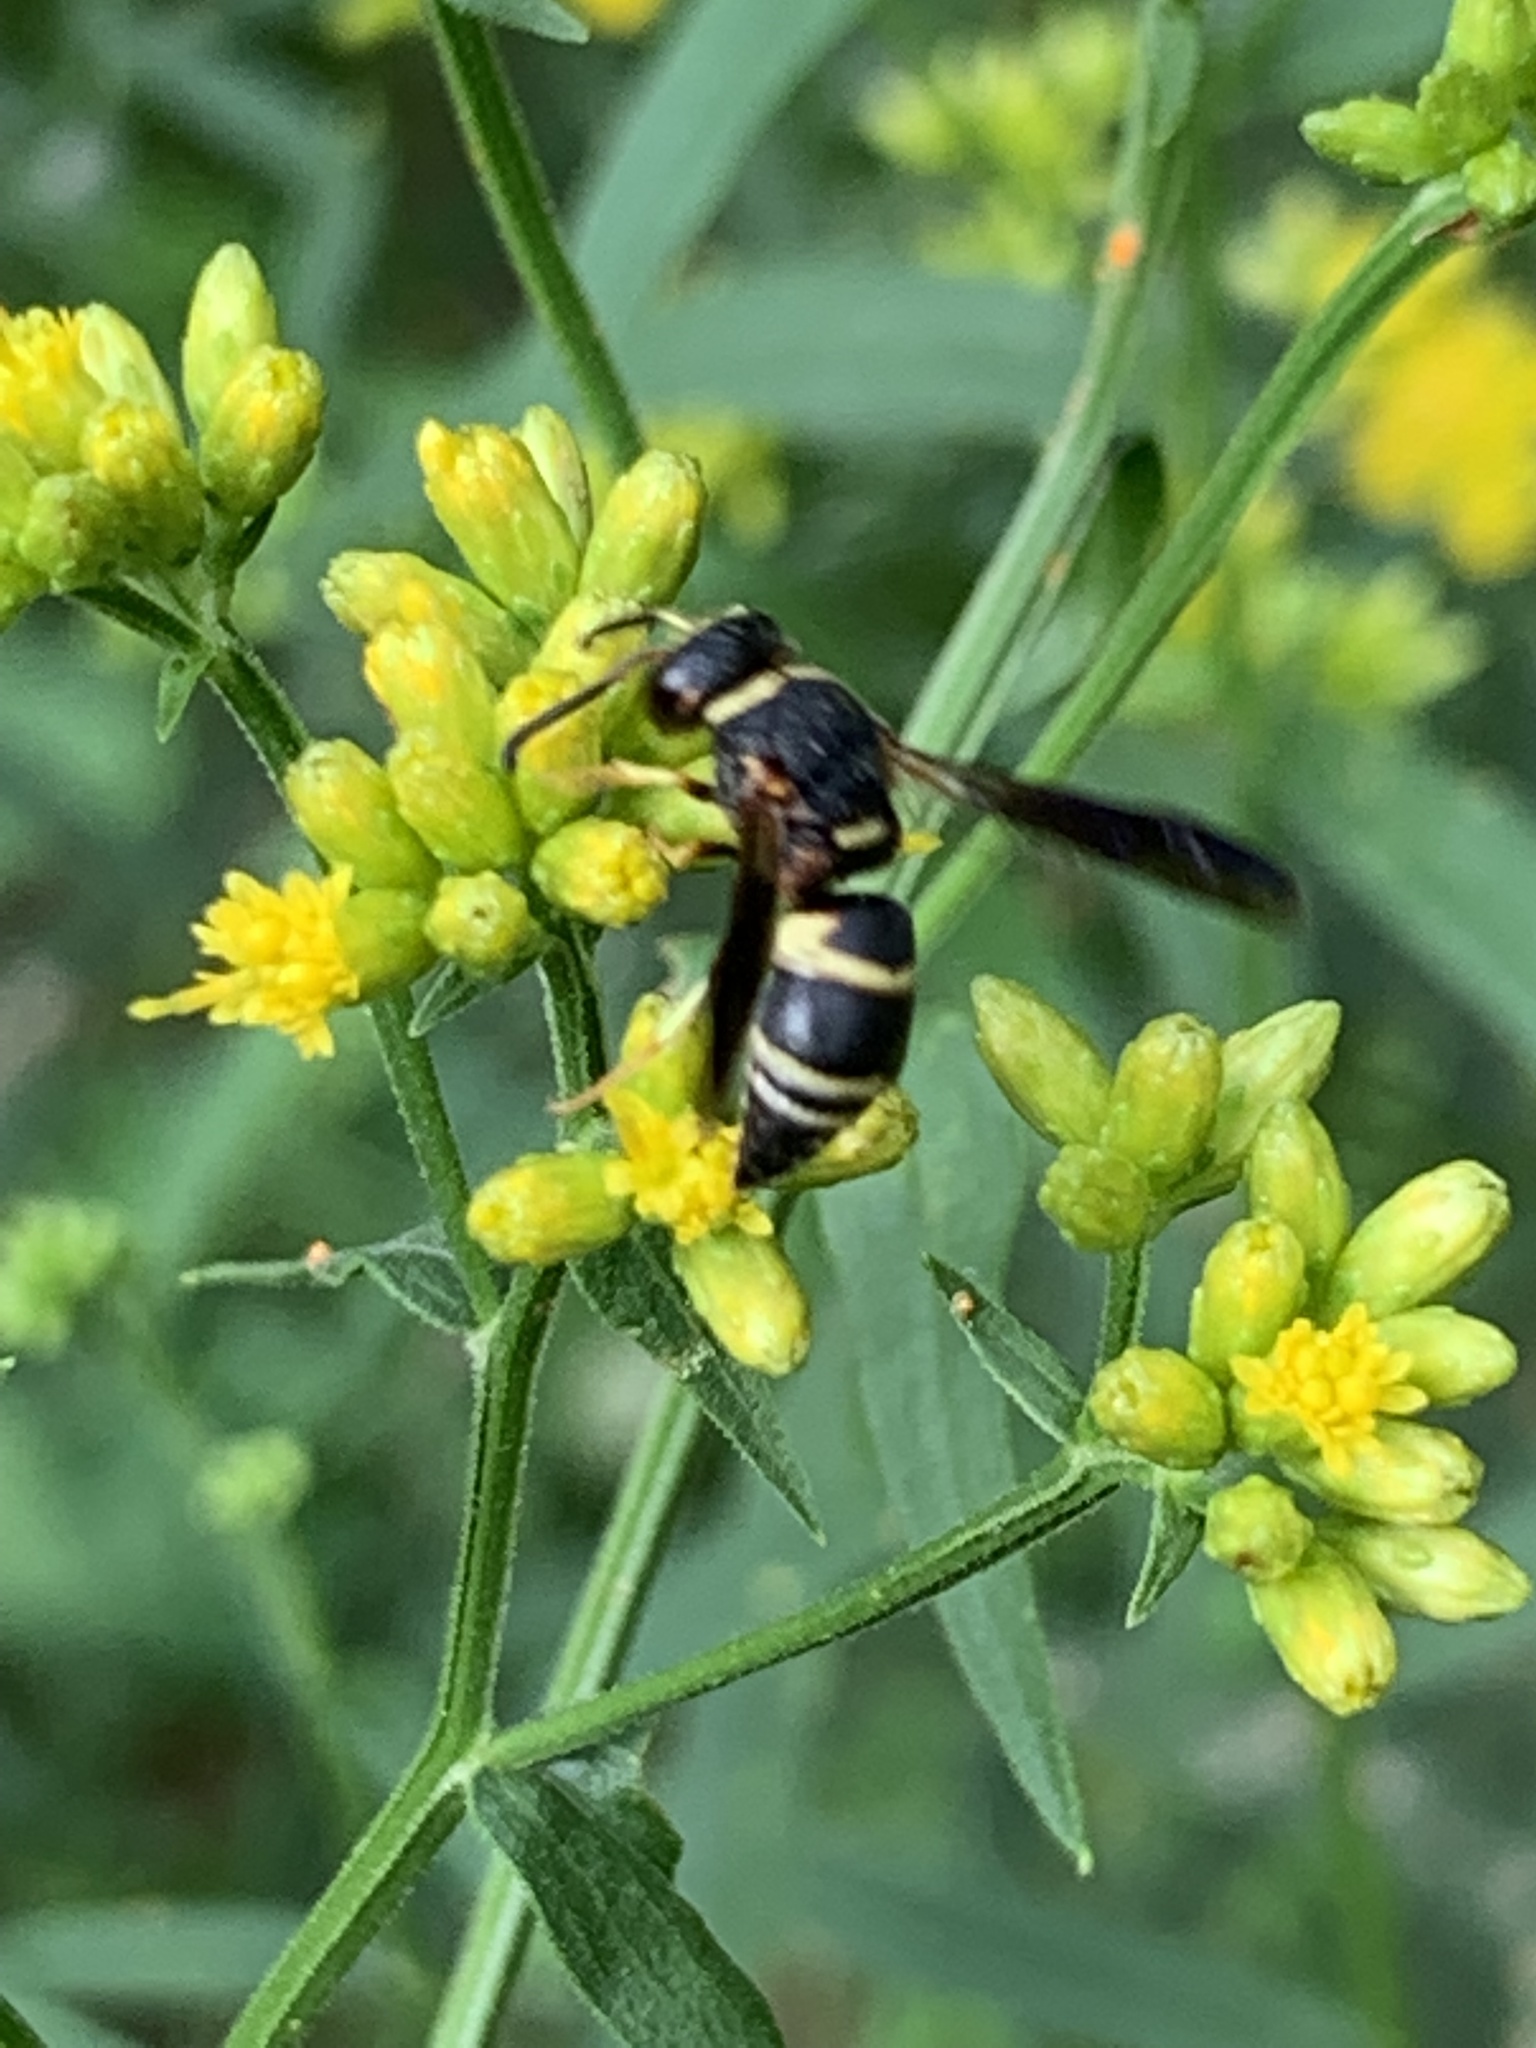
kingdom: Animalia
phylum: Arthropoda
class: Insecta
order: Hymenoptera
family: Eumenidae
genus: Euodynerus
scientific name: Euodynerus hidalgo
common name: Wasp
